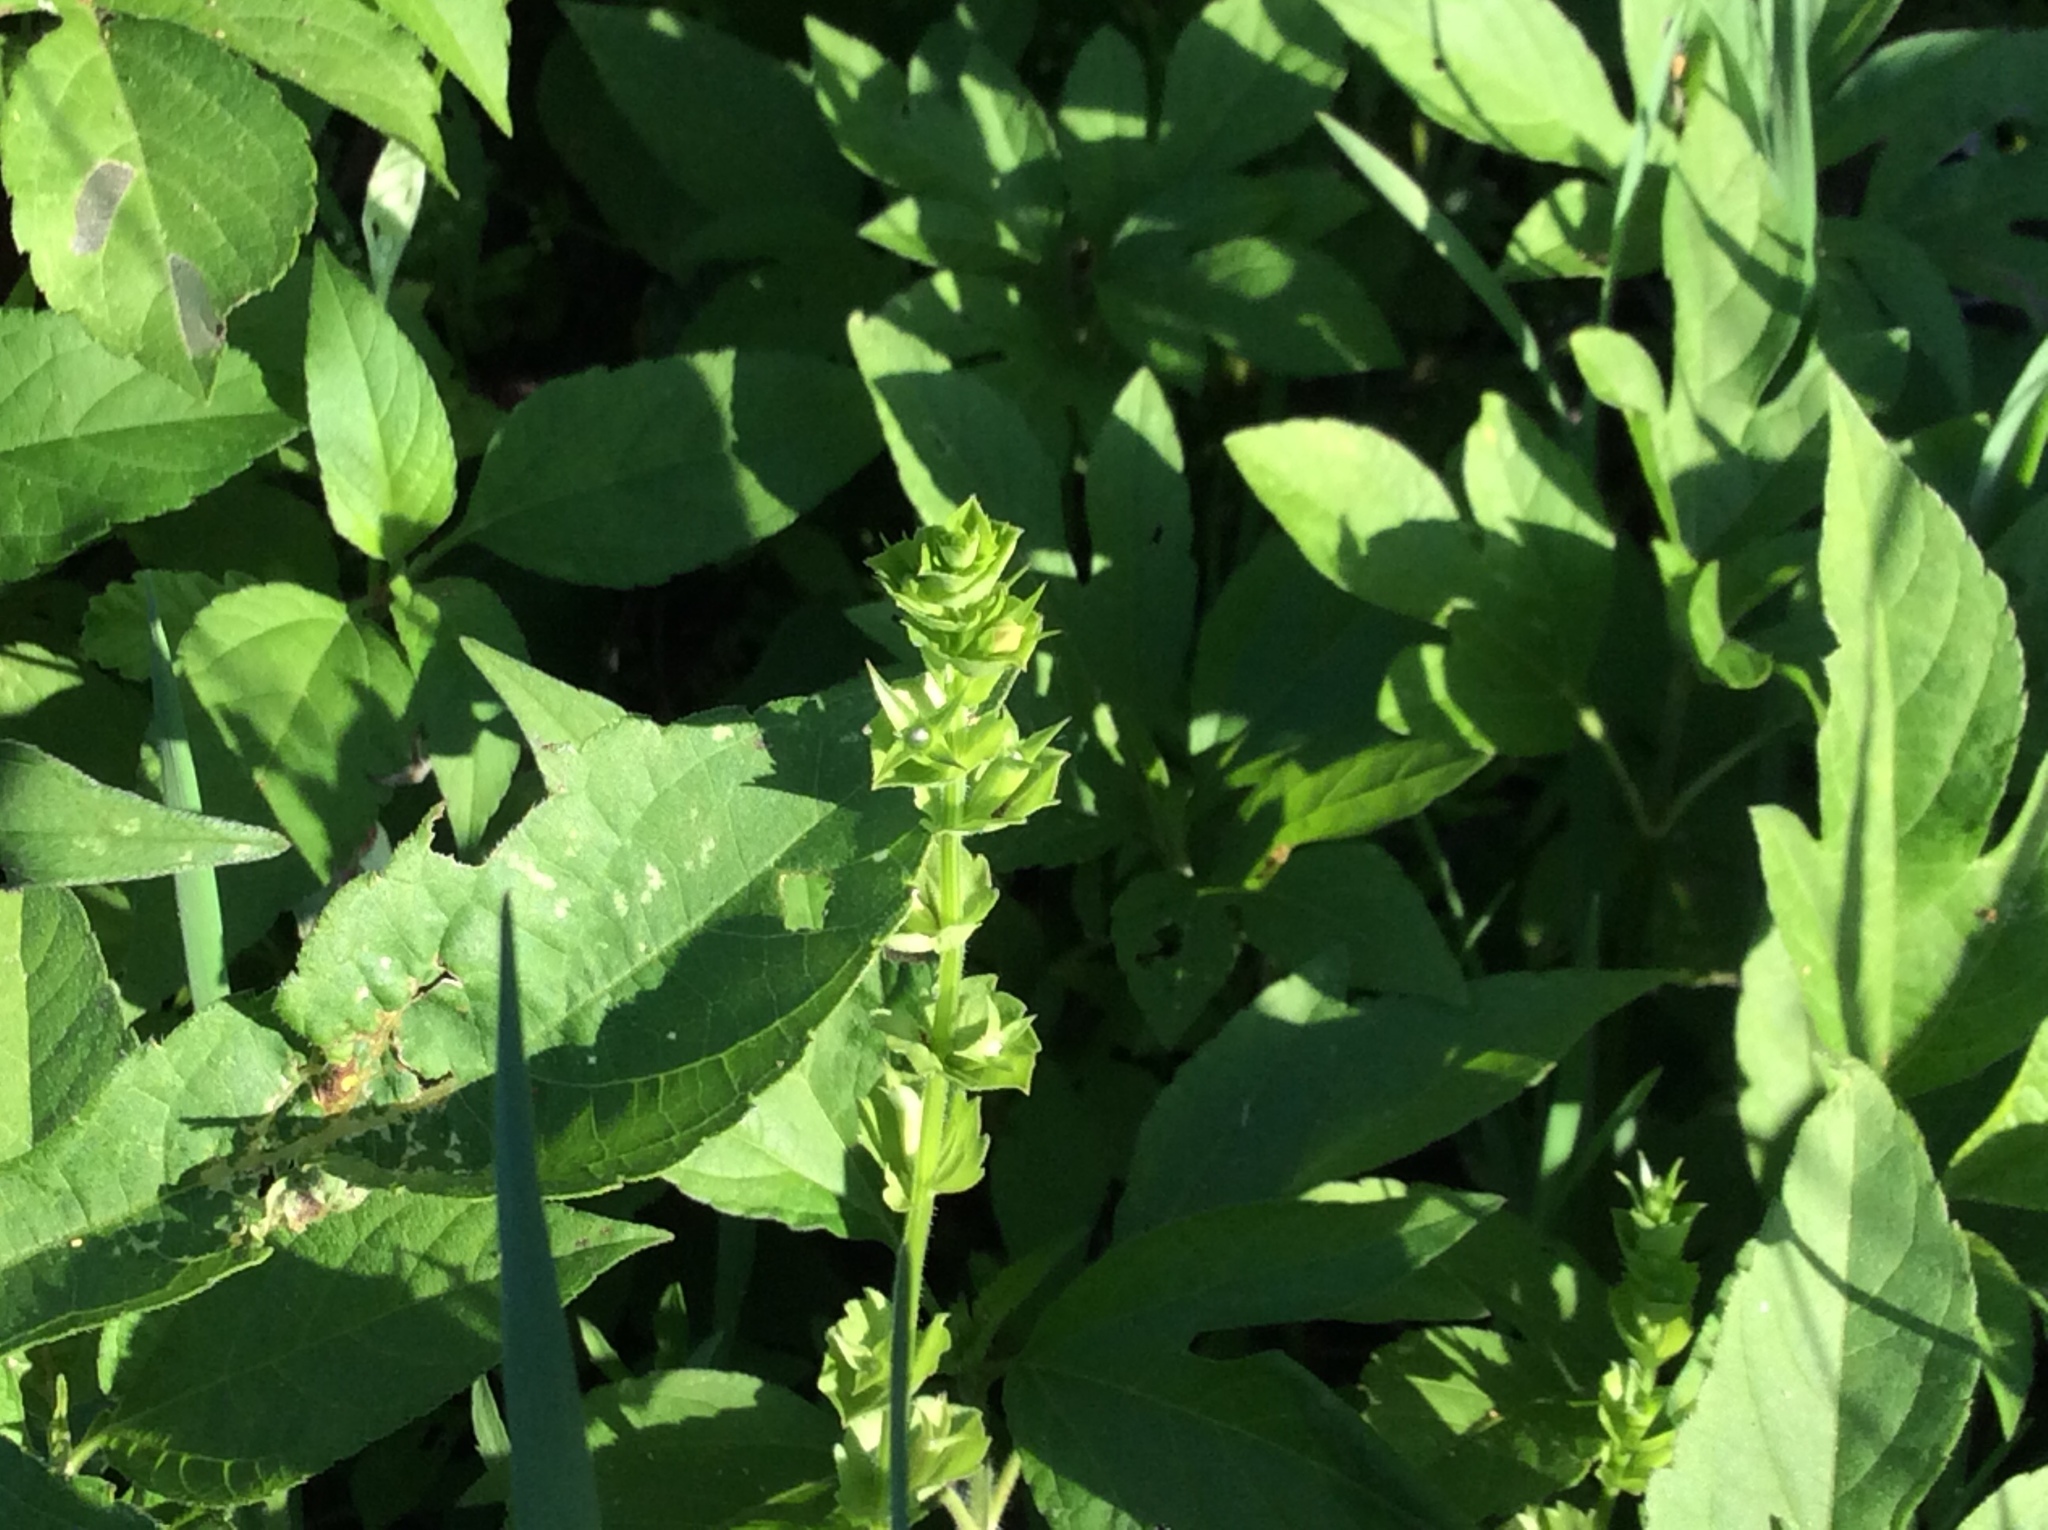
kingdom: Plantae
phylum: Tracheophyta
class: Magnoliopsida
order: Asterales
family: Campanulaceae
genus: Triodanis
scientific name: Triodanis perfoliata
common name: Clasping venus' looking-glass
